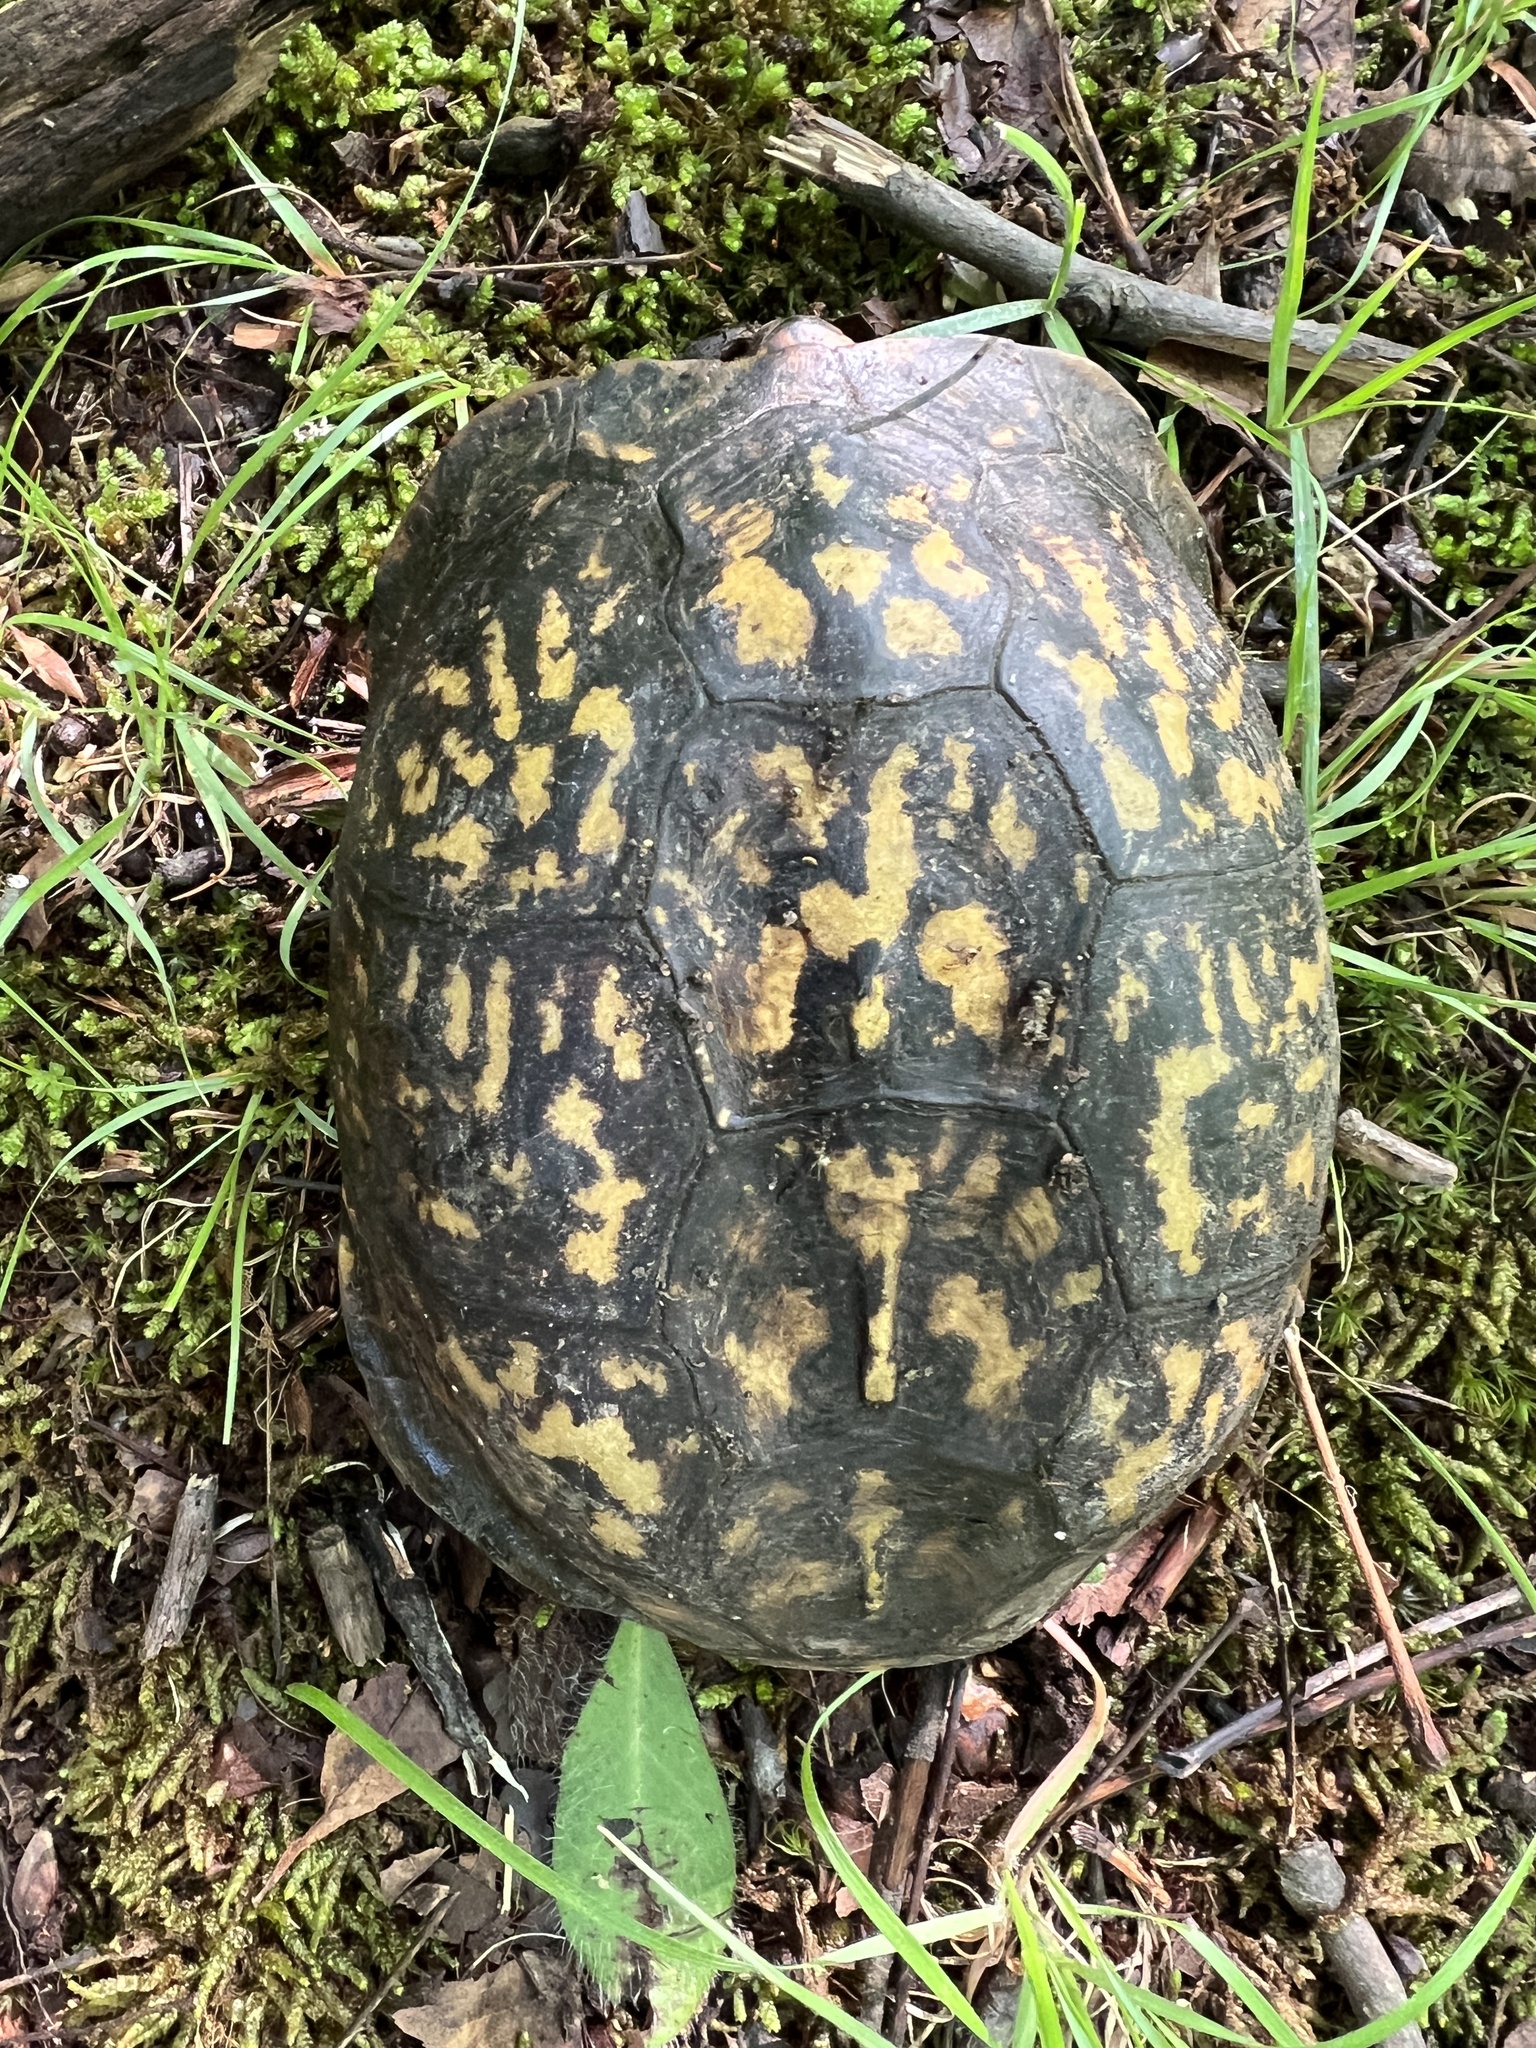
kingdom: Animalia
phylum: Chordata
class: Testudines
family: Emydidae
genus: Terrapene
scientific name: Terrapene carolina
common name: Common box turtle
